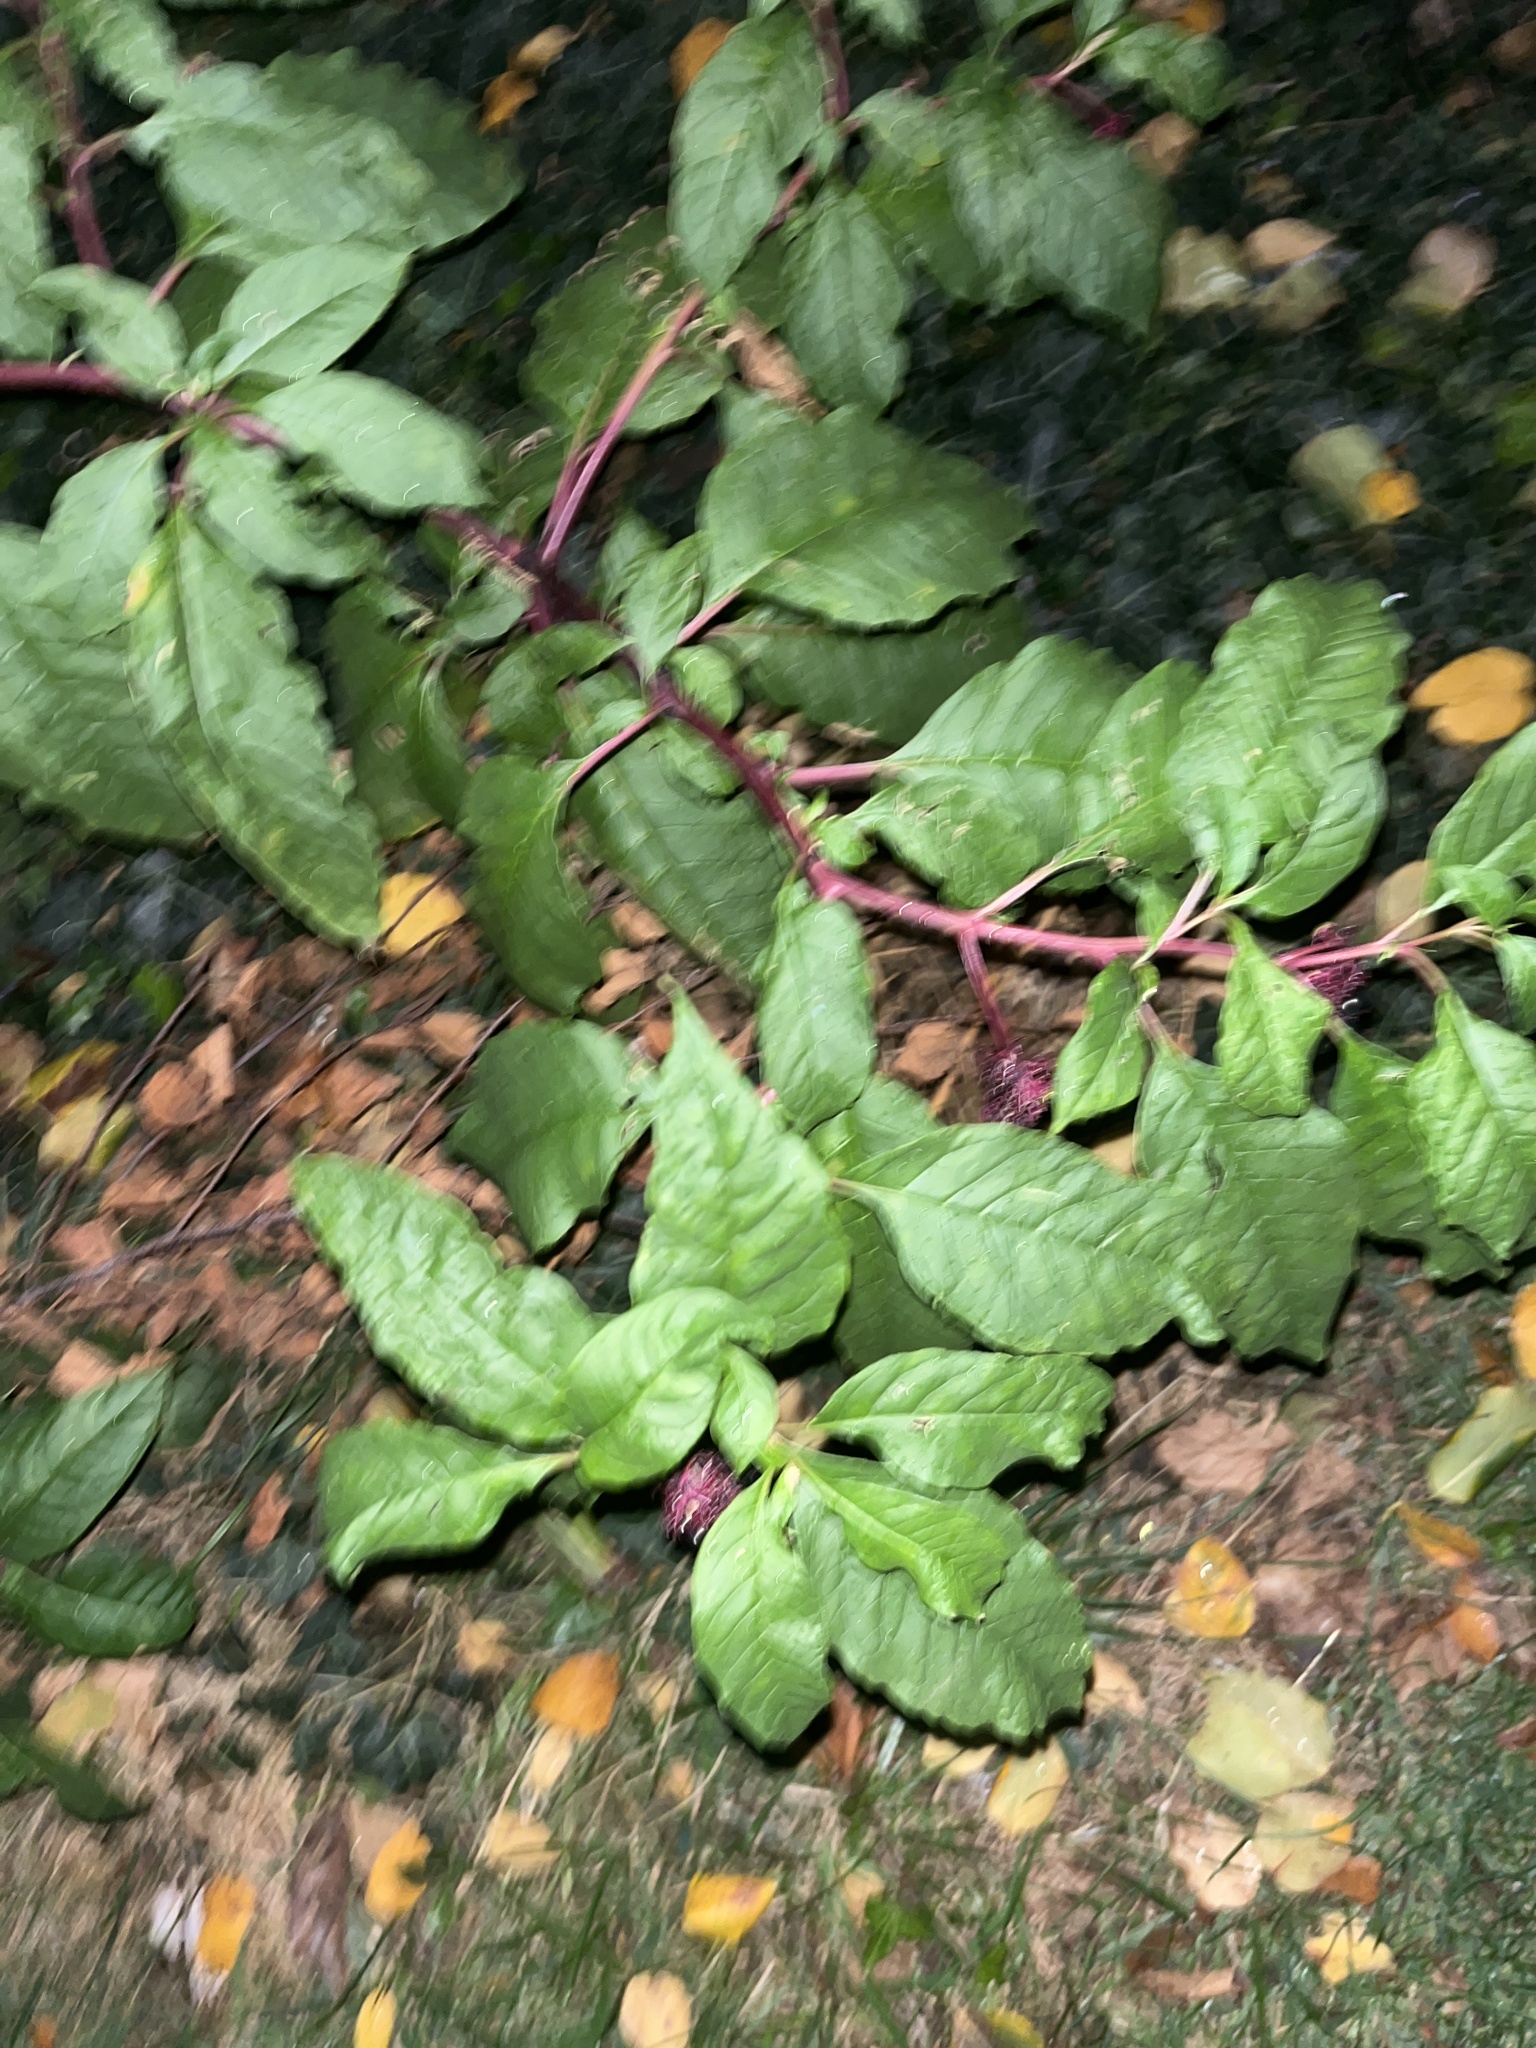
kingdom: Plantae
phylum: Tracheophyta
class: Magnoliopsida
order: Caryophyllales
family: Phytolaccaceae
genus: Phytolacca
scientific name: Phytolacca americana
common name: American pokeweed
